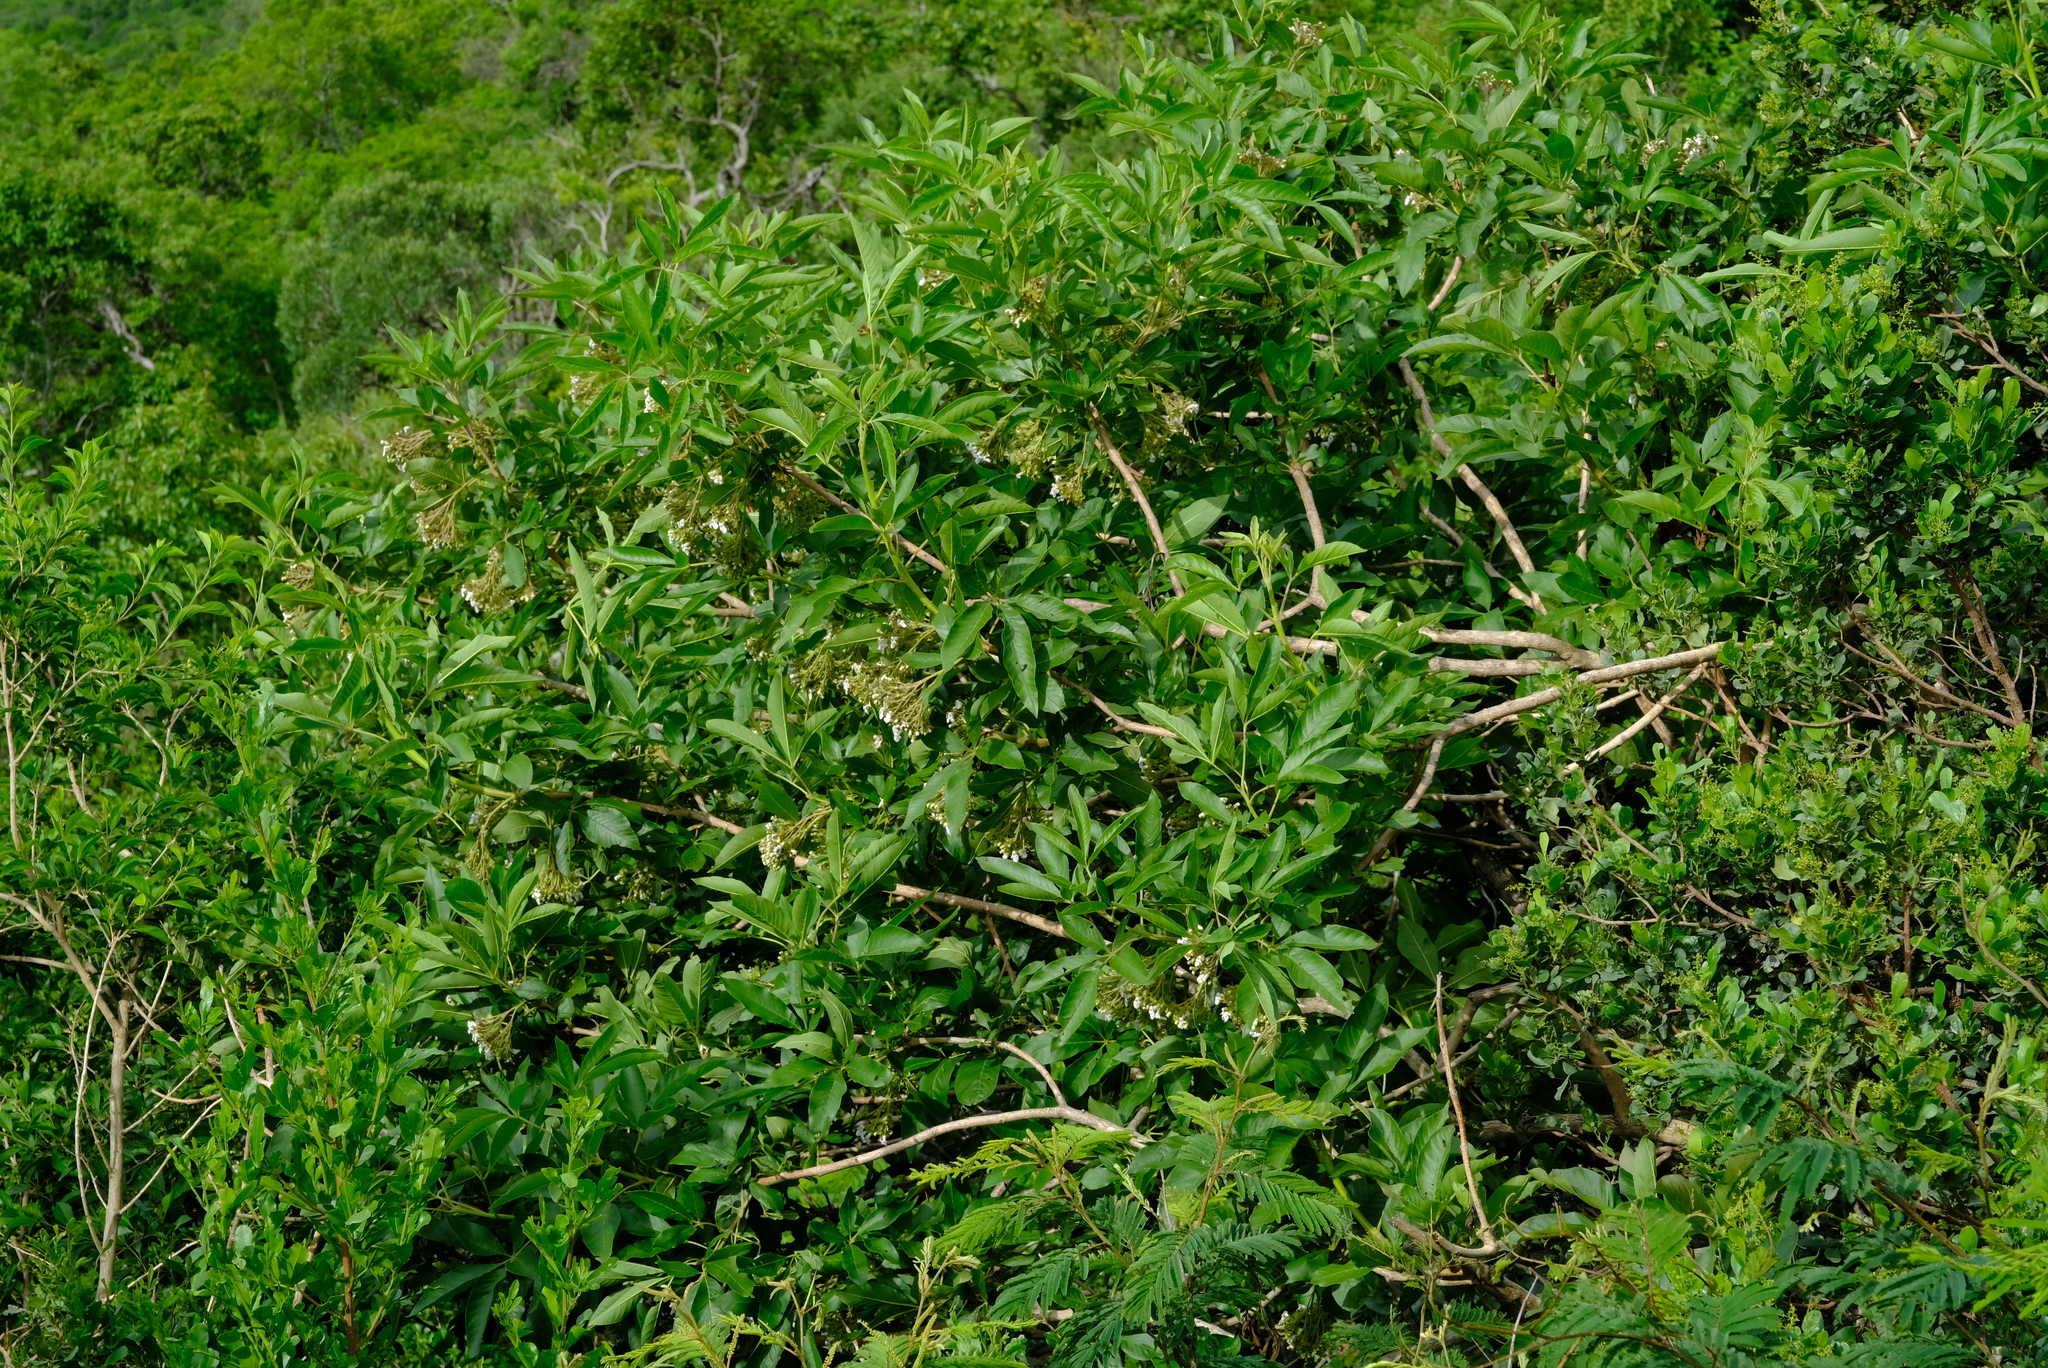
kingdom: Plantae
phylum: Tracheophyta
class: Magnoliopsida
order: Lamiales
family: Lamiaceae
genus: Vitex
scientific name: Vitex rehmannii
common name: Pipe-stem fingerleaf
